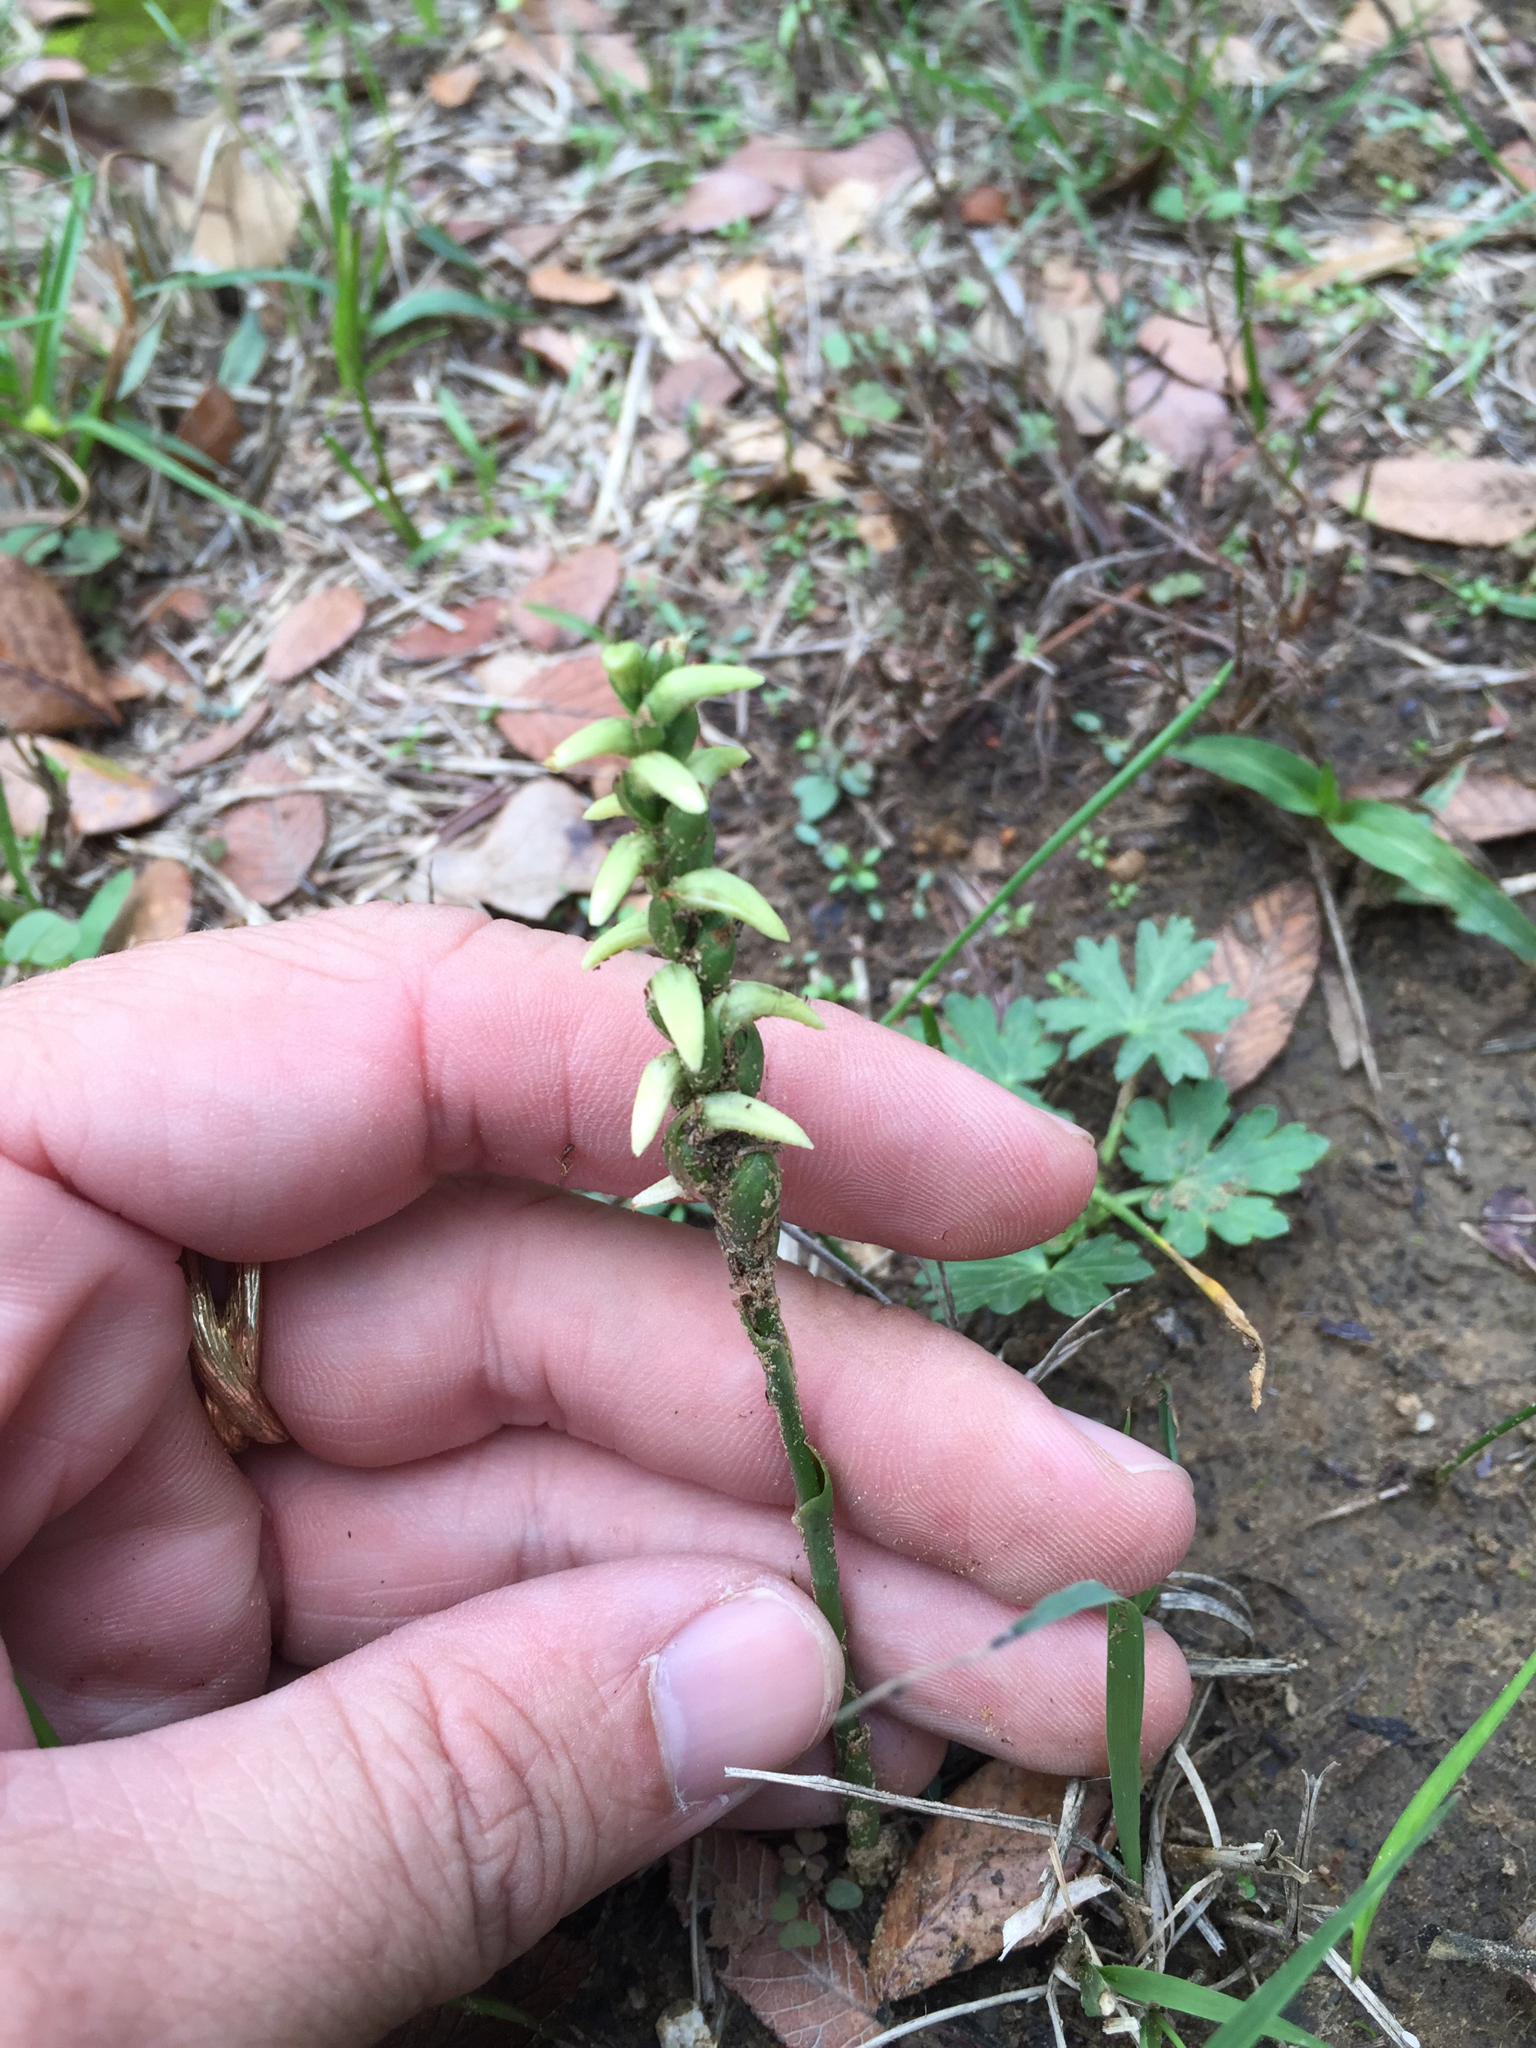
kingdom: Plantae
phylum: Tracheophyta
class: Liliopsida
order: Asparagales
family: Orchidaceae
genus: Spiranthes
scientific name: Spiranthes cernua
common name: Dropping ladies'-tresses
